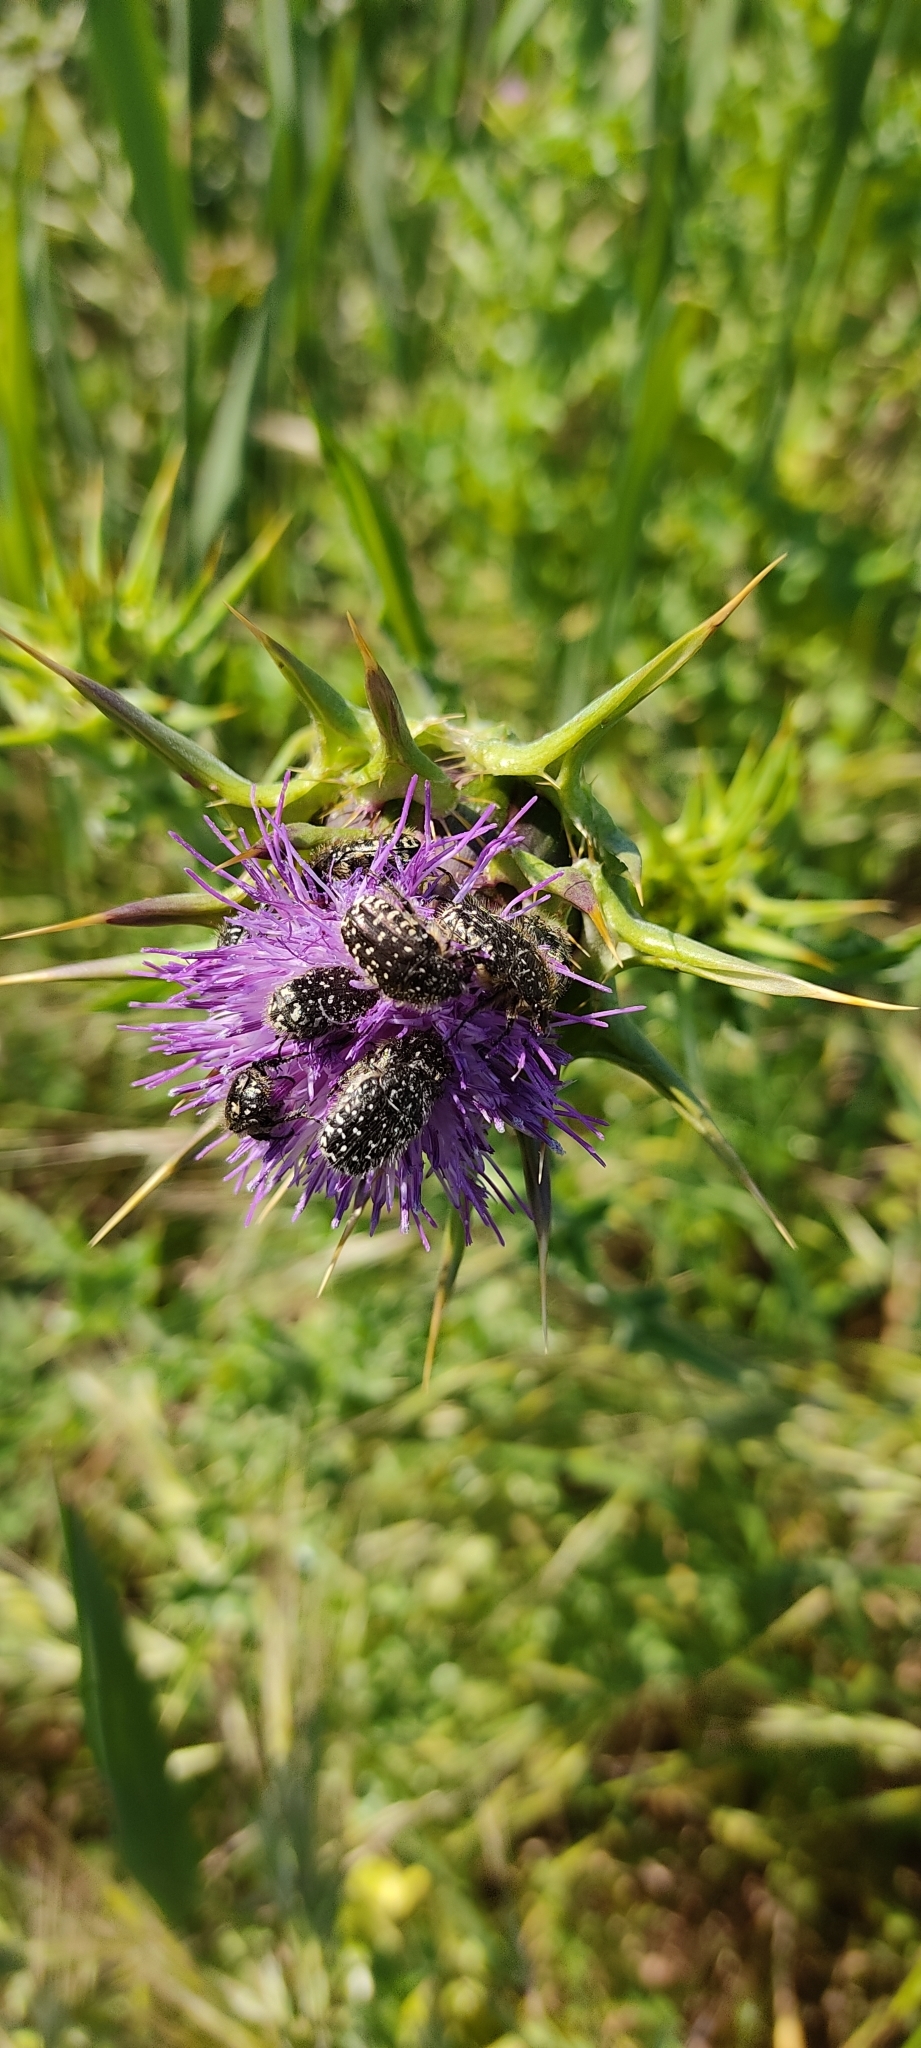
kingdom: Animalia
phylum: Arthropoda
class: Insecta
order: Coleoptera
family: Scarabaeidae
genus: Oxythyrea
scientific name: Oxythyrea funesta
